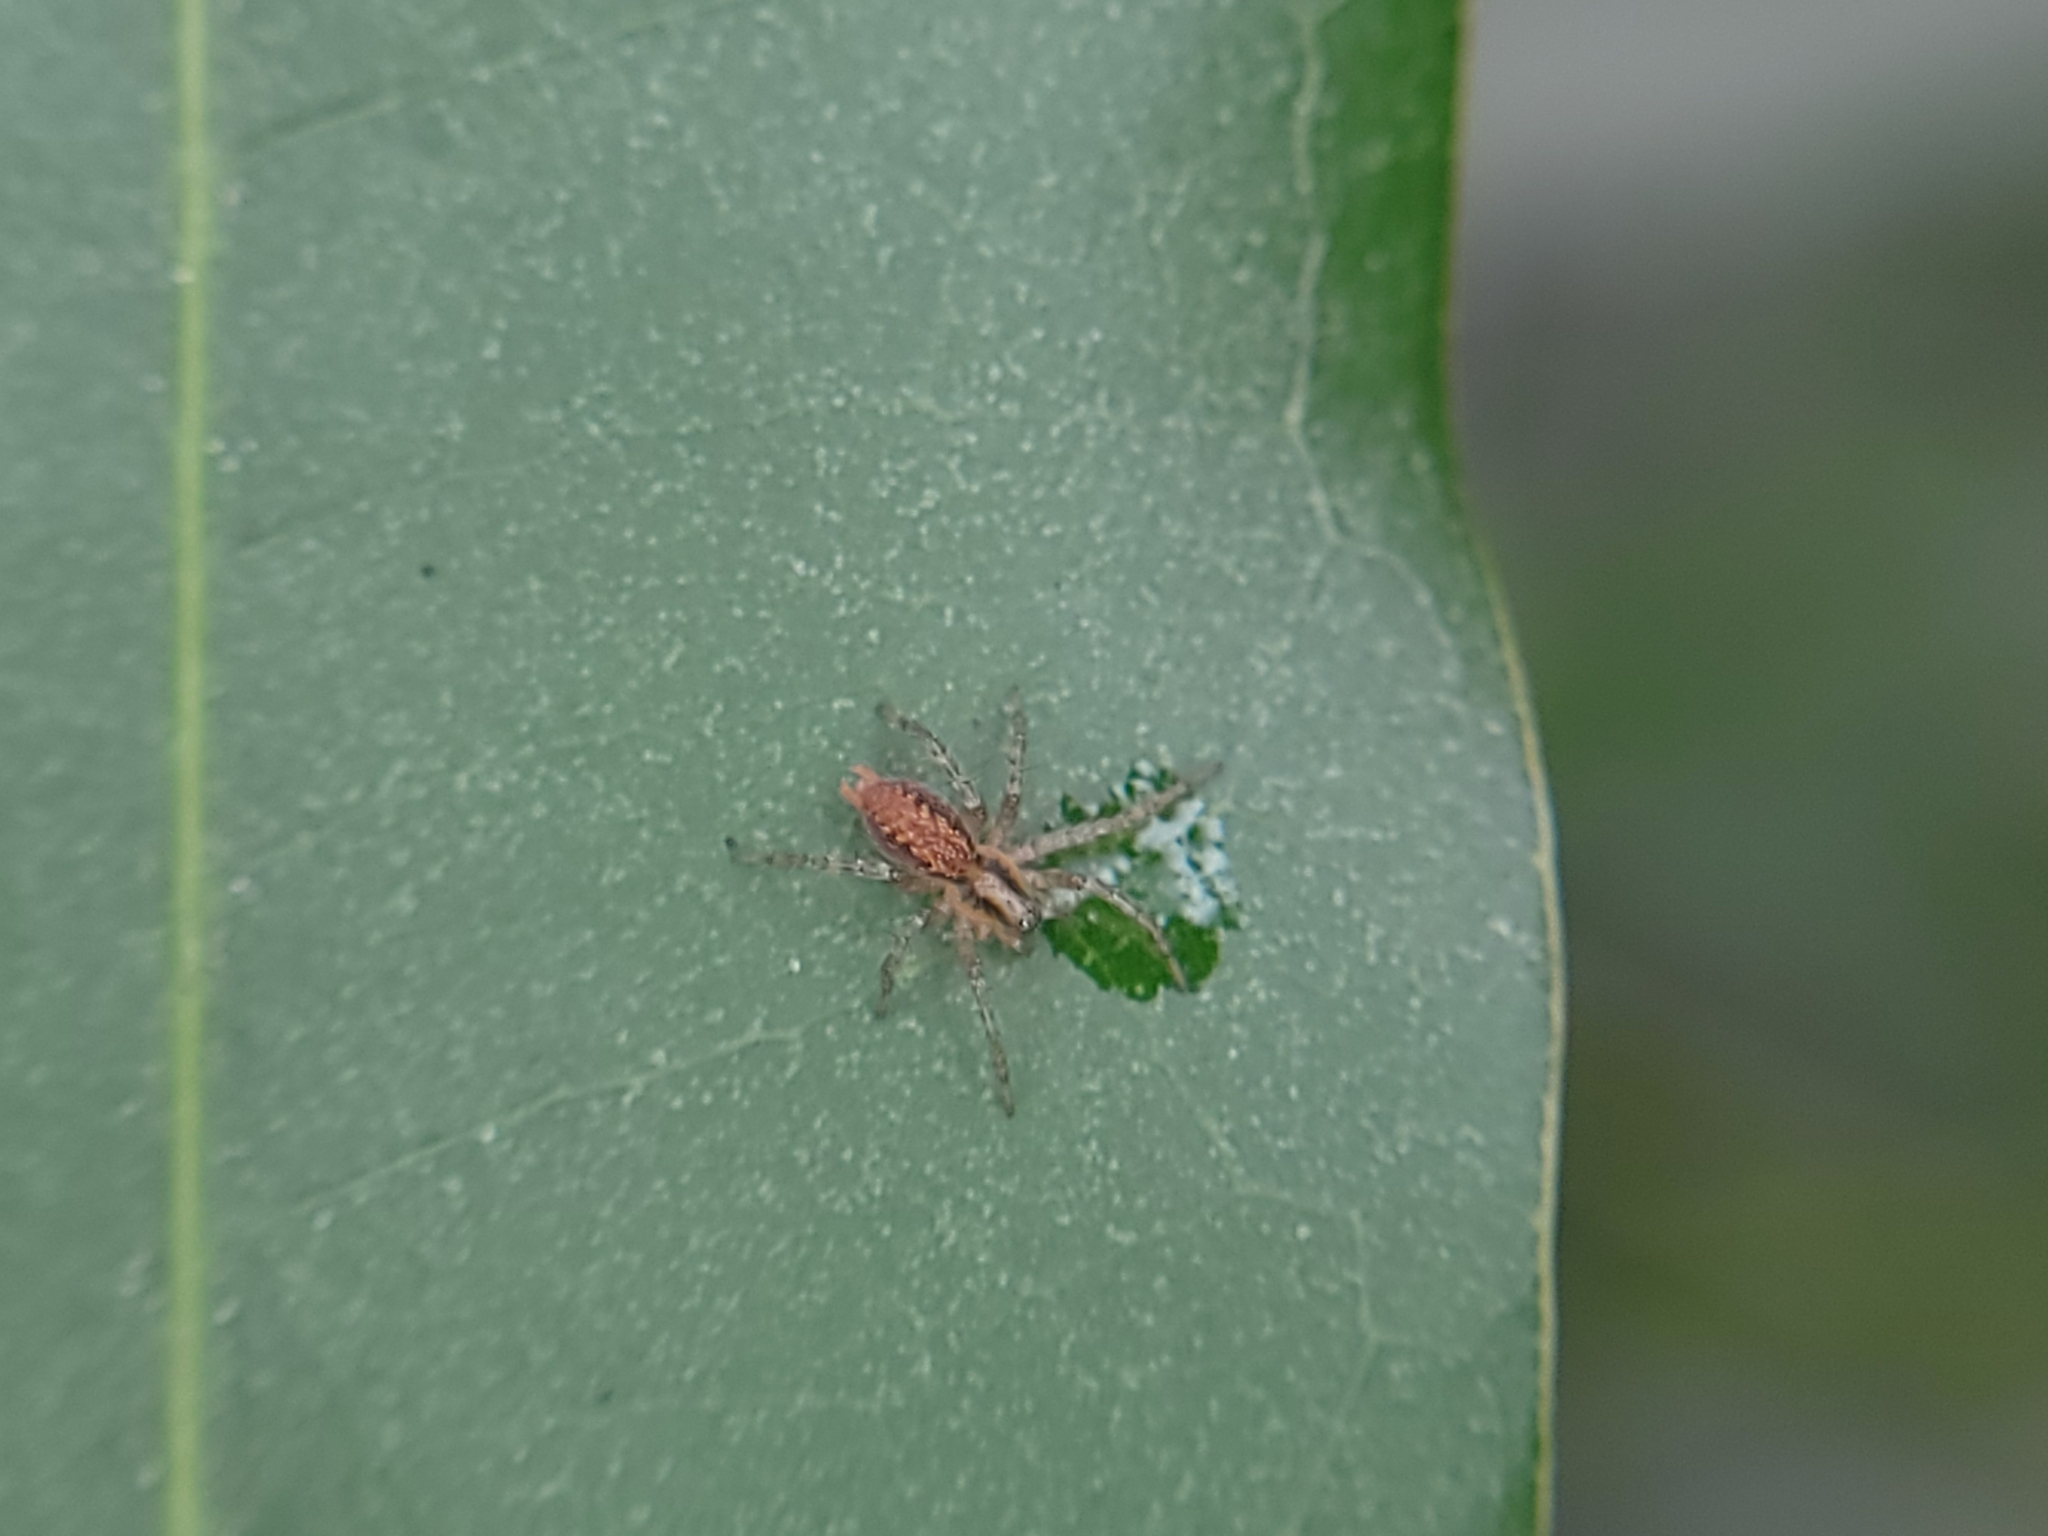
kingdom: Animalia
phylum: Arthropoda
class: Arachnida
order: Araneae
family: Agelenidae
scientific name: Agelenidae
